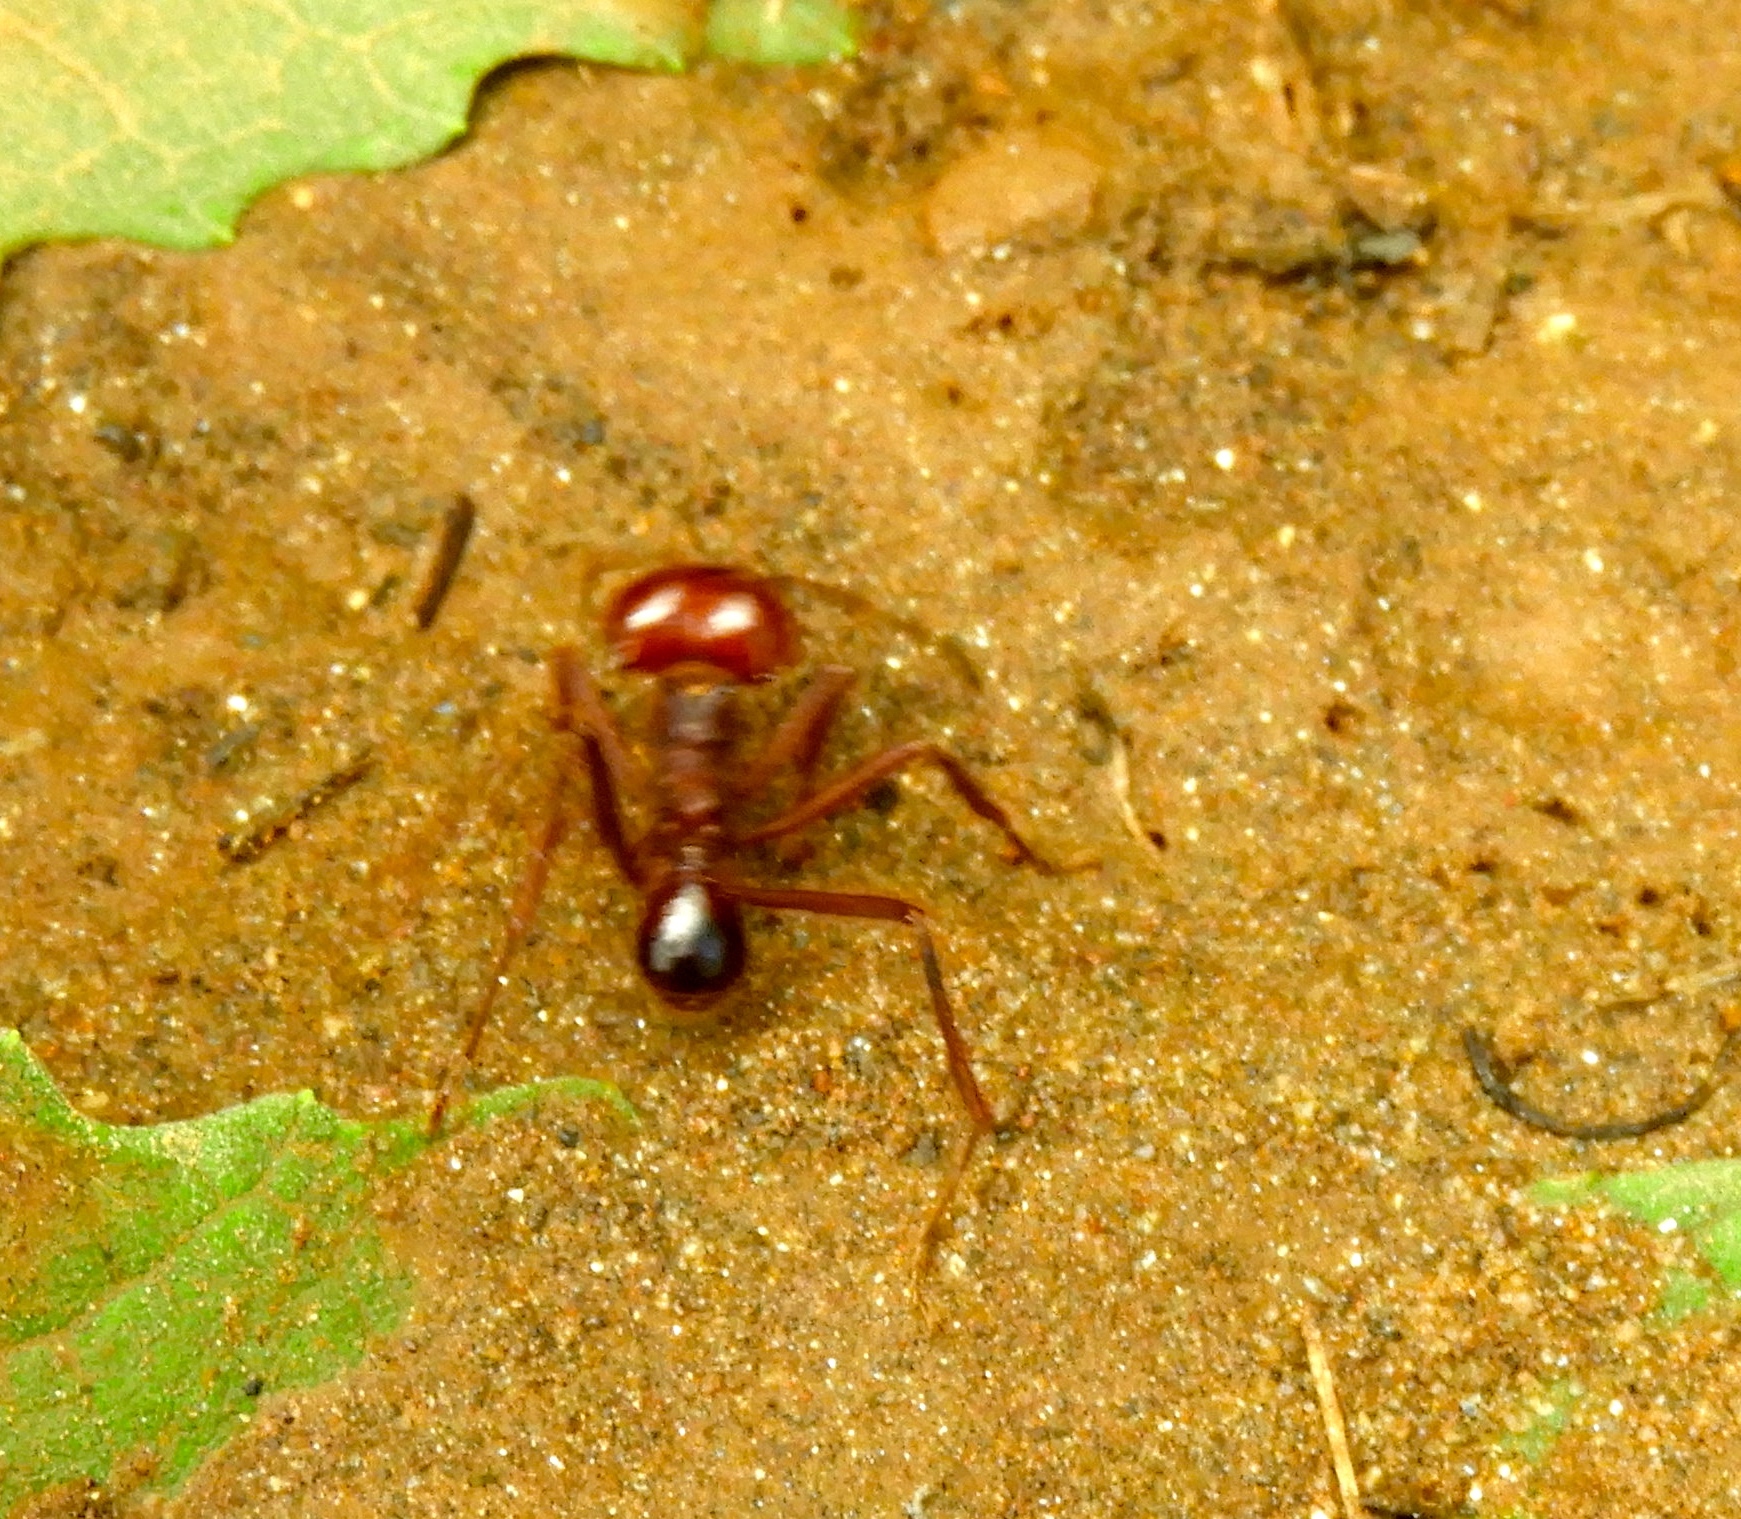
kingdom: Animalia
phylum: Arthropoda
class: Insecta
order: Hymenoptera
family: Formicidae
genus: Atta
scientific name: Atta mexicana
